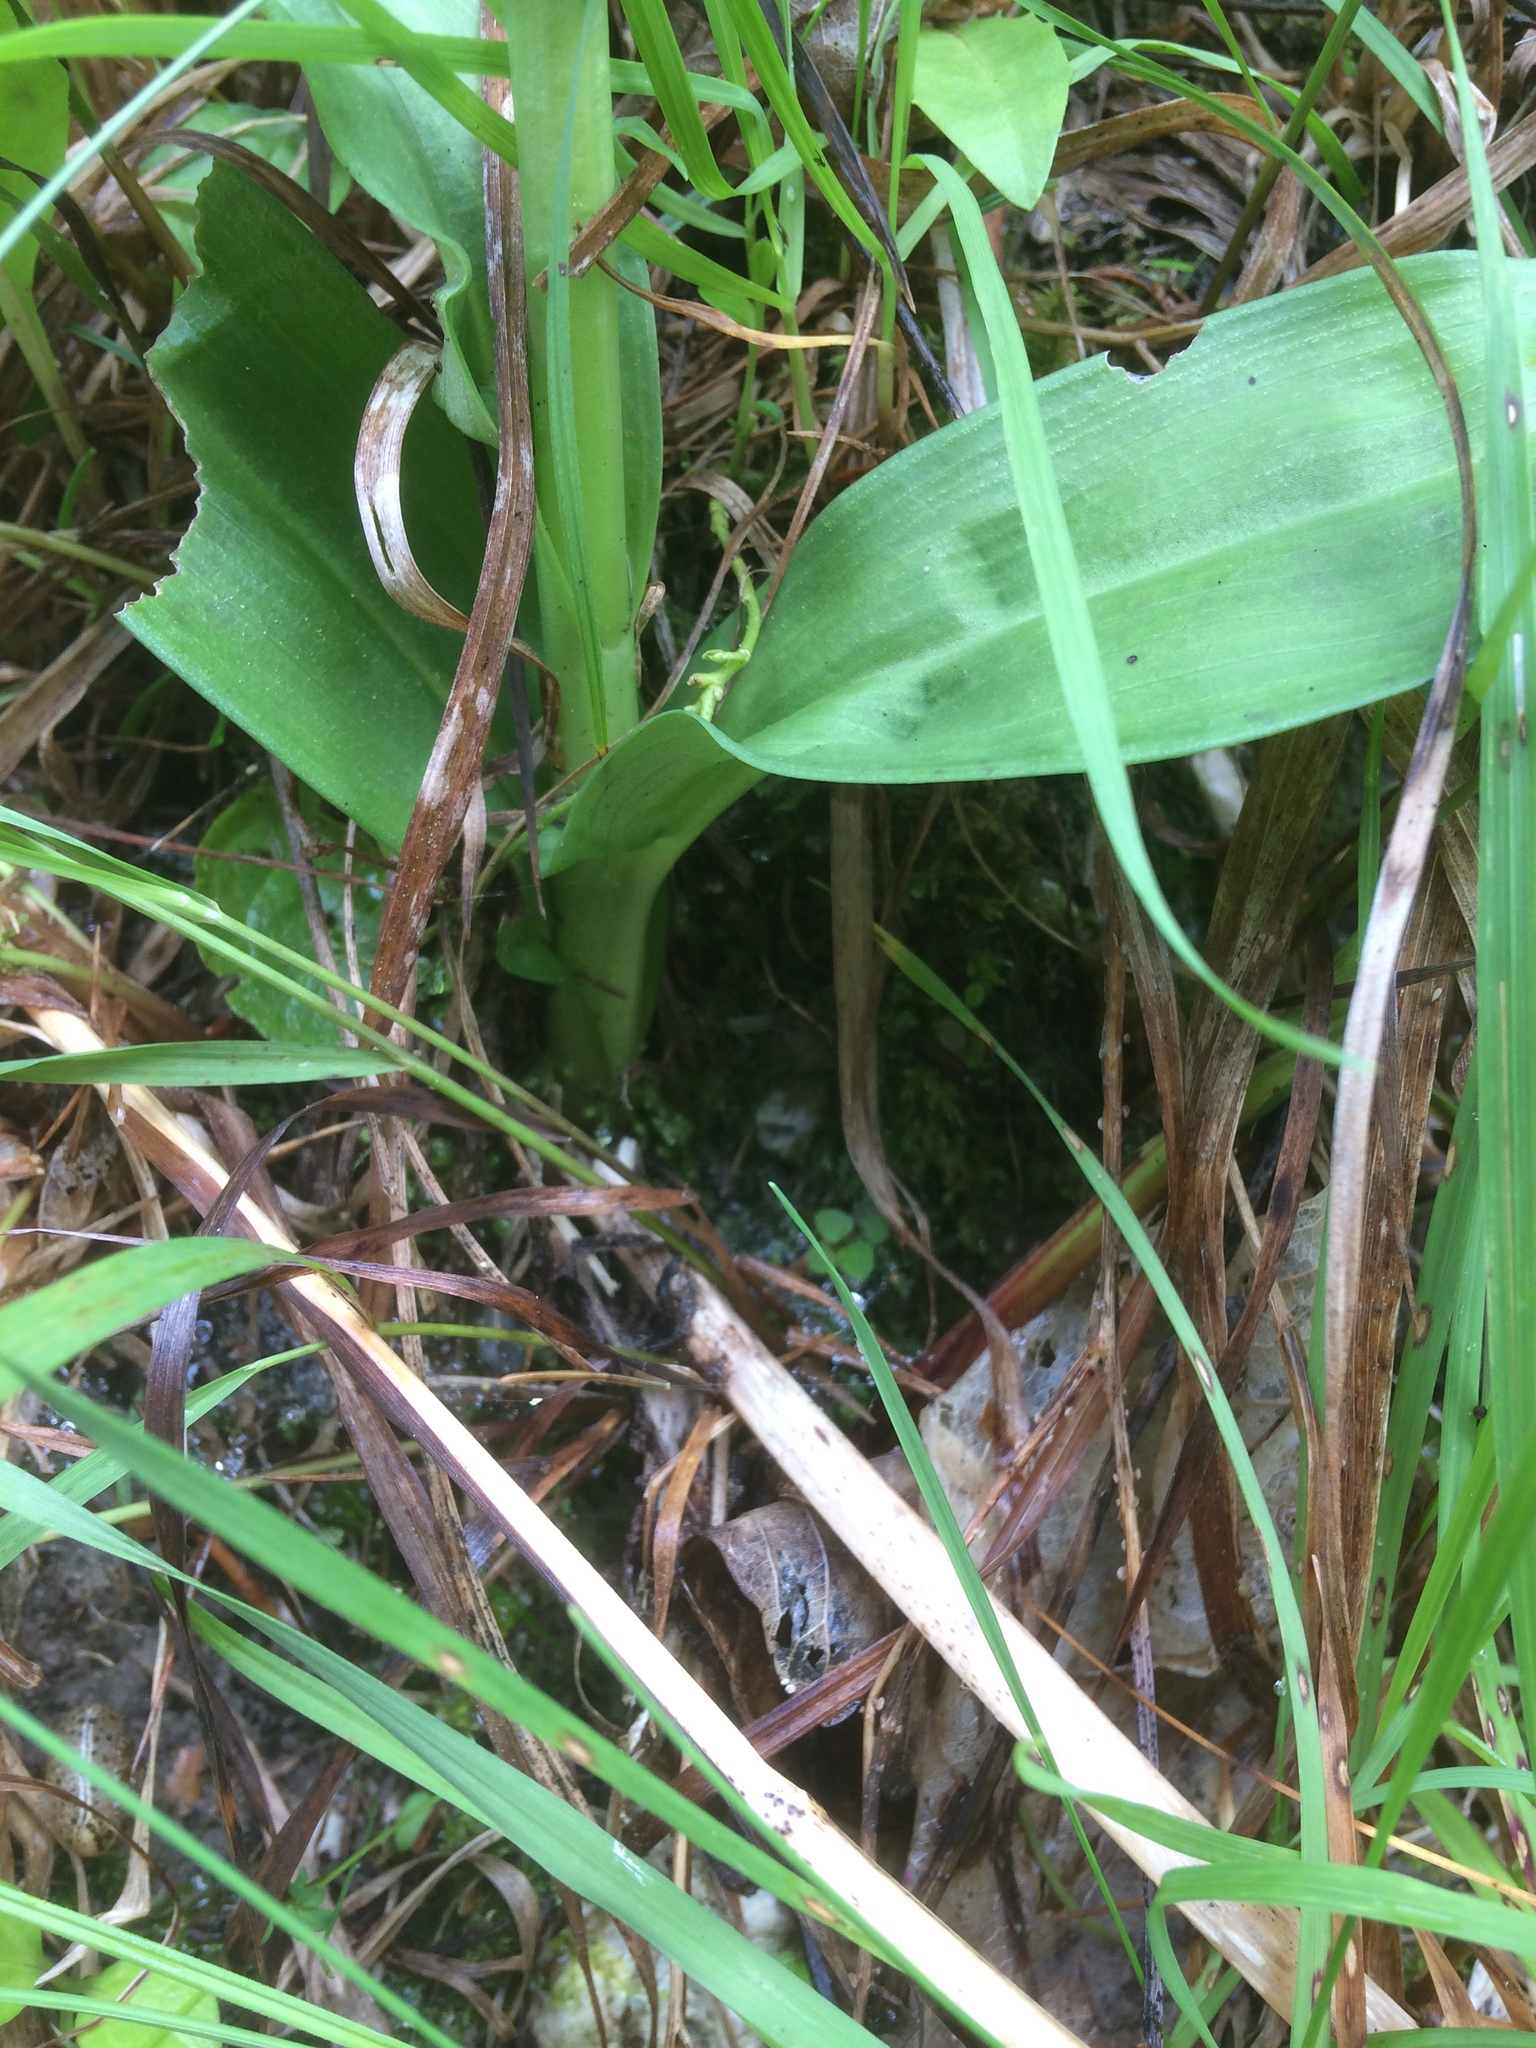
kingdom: Plantae
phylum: Tracheophyta
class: Liliopsida
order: Asparagales
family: Orchidaceae
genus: Dactylorhiza
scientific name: Dactylorhiza majalis
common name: Marsh orchid
